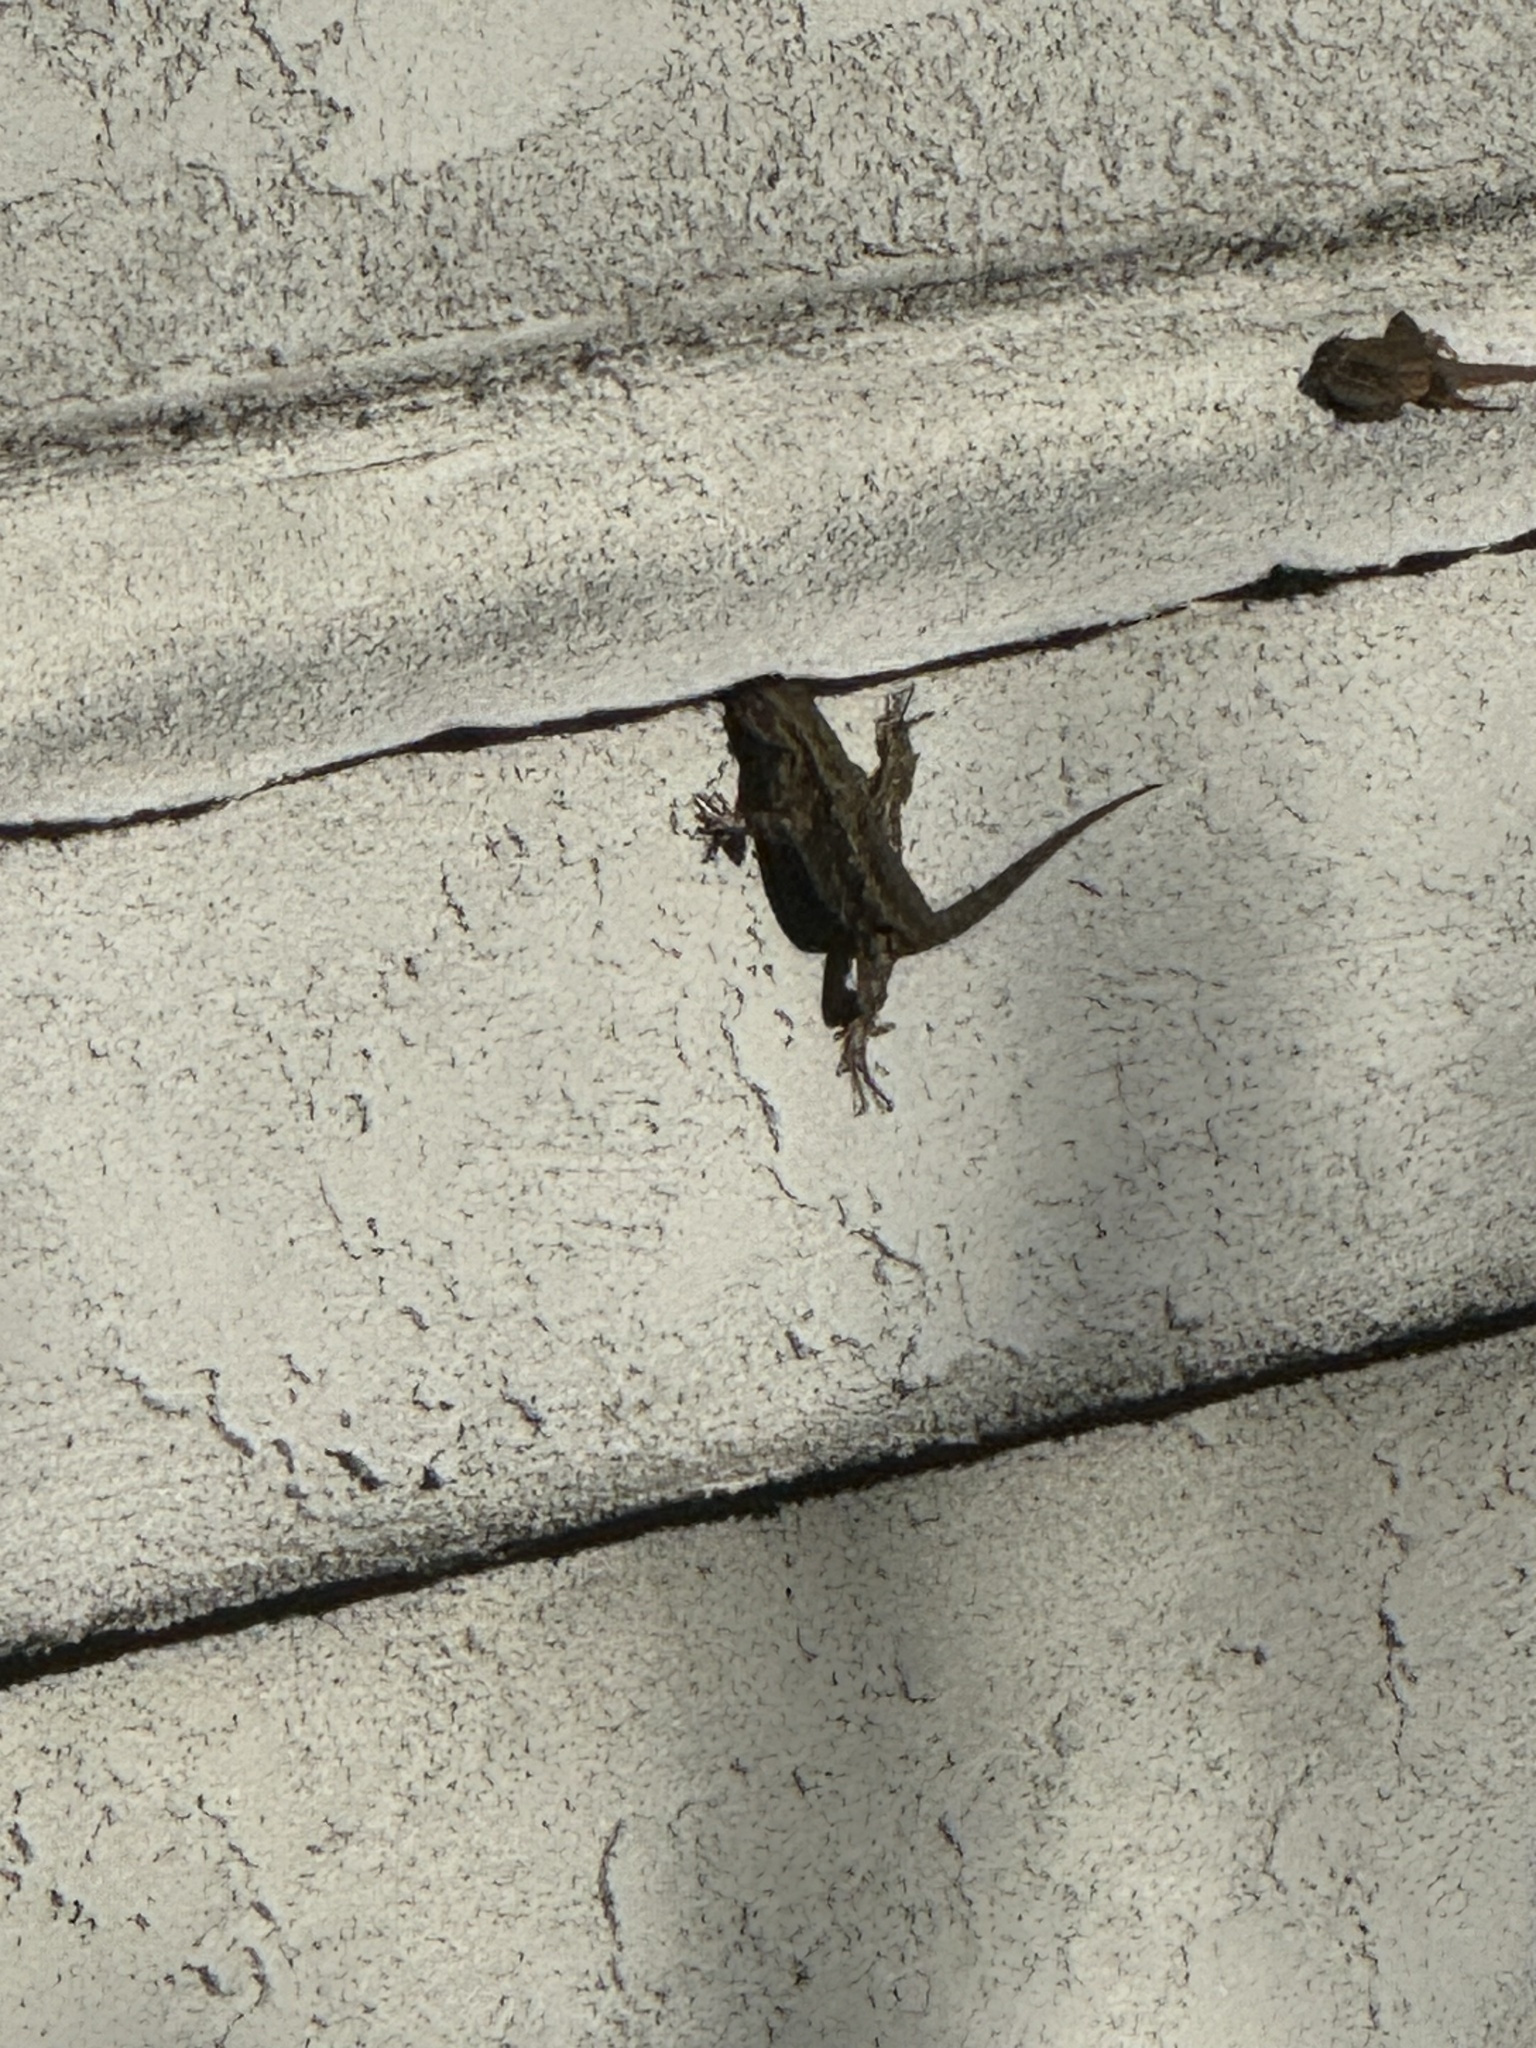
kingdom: Animalia
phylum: Chordata
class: Squamata
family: Phrynosomatidae
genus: Sceloporus
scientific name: Sceloporus occidentalis
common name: Western fence lizard
